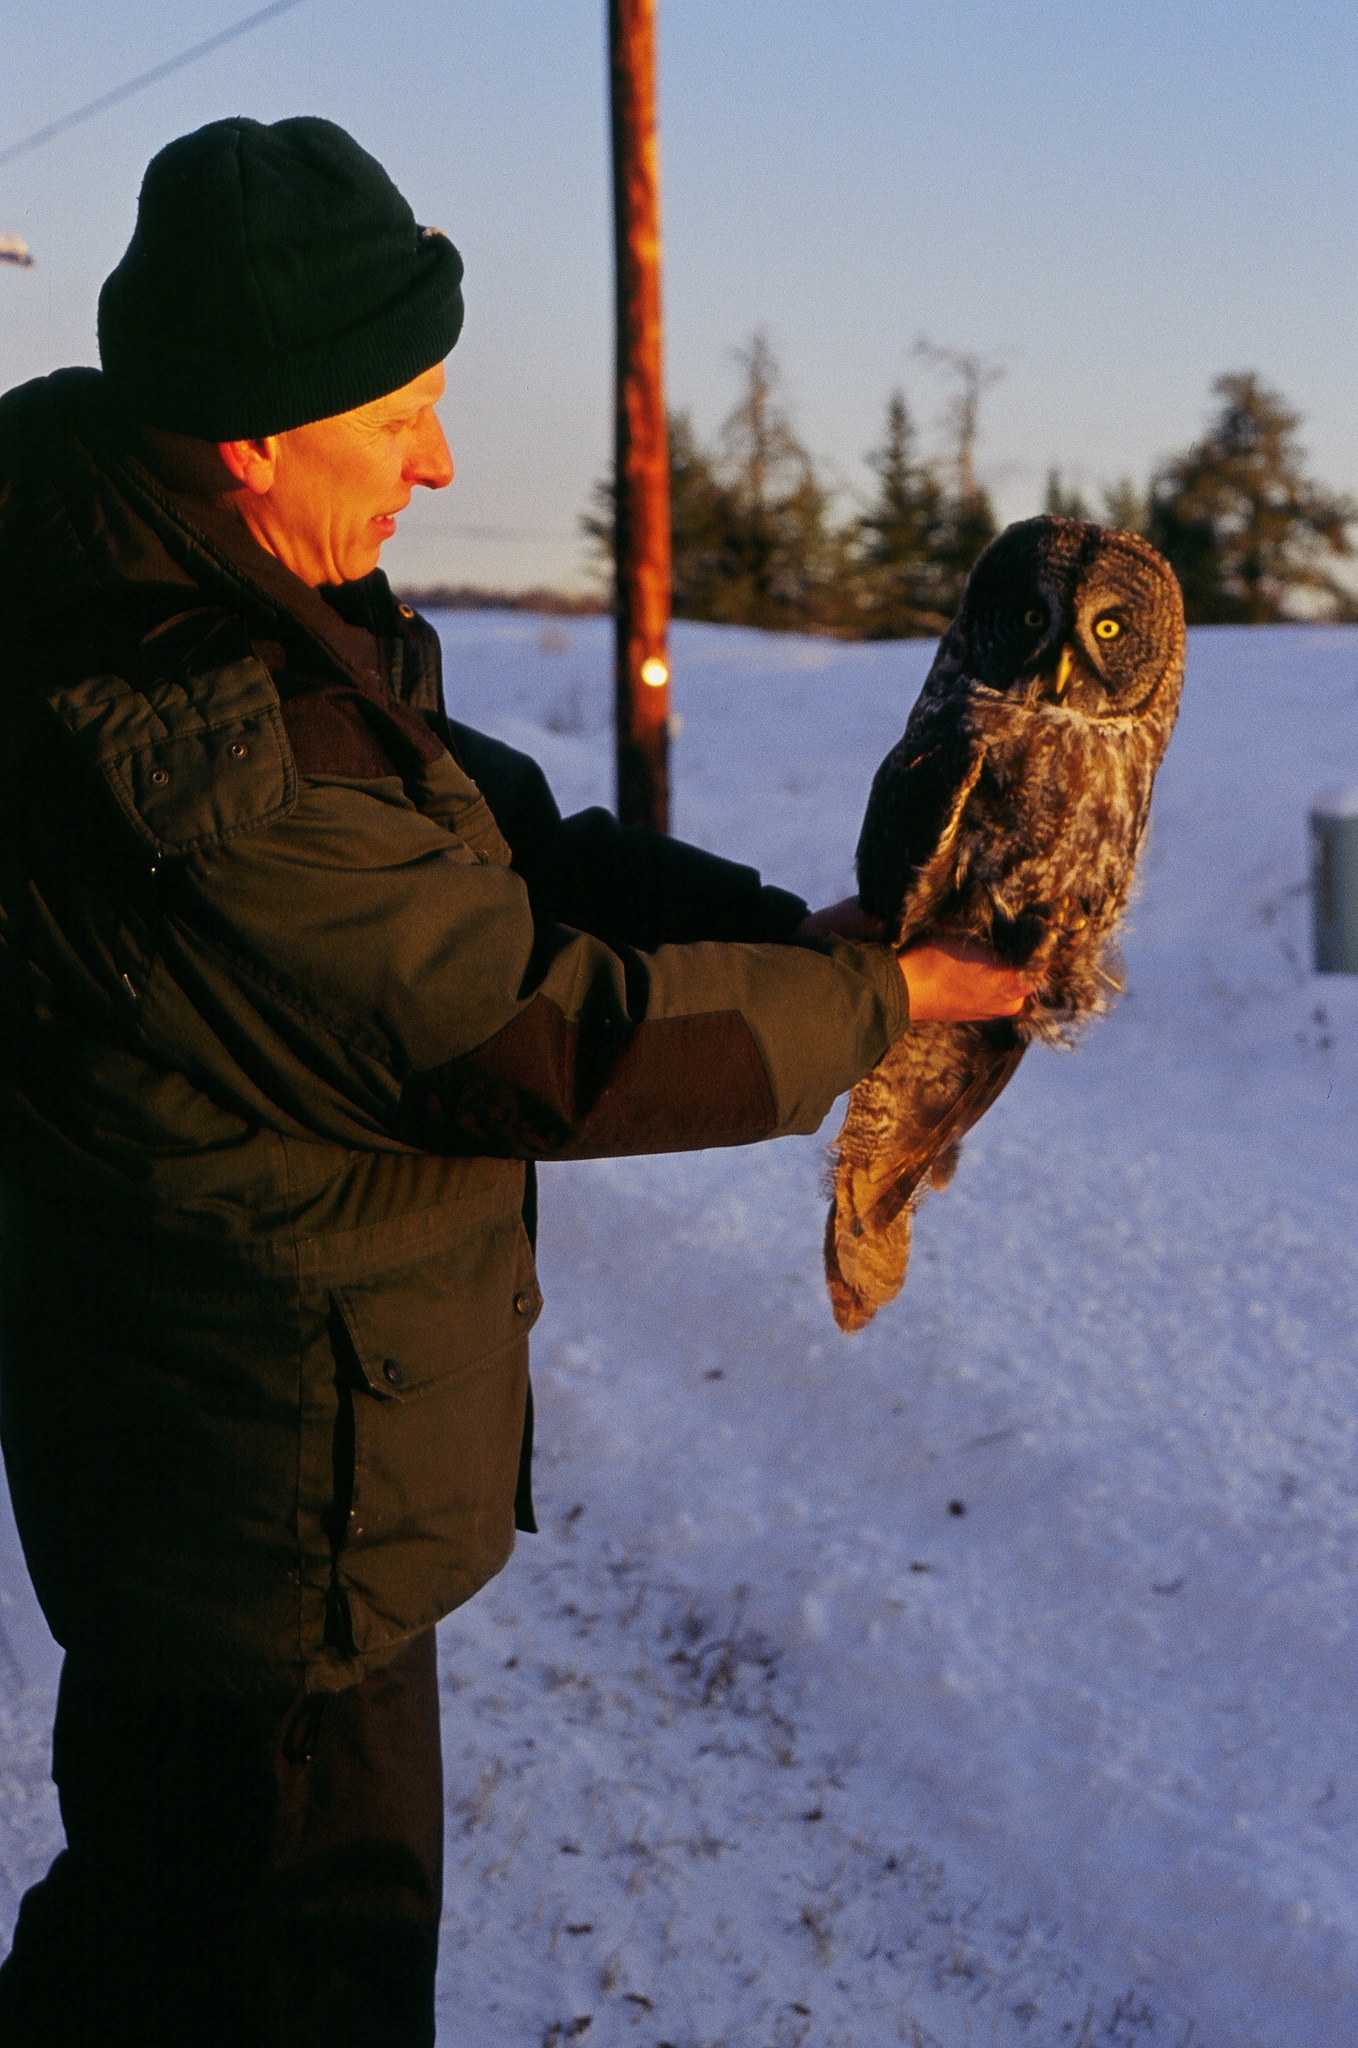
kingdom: Animalia
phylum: Chordata
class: Aves
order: Strigiformes
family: Strigidae
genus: Strix
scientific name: Strix nebulosa
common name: Great grey owl
